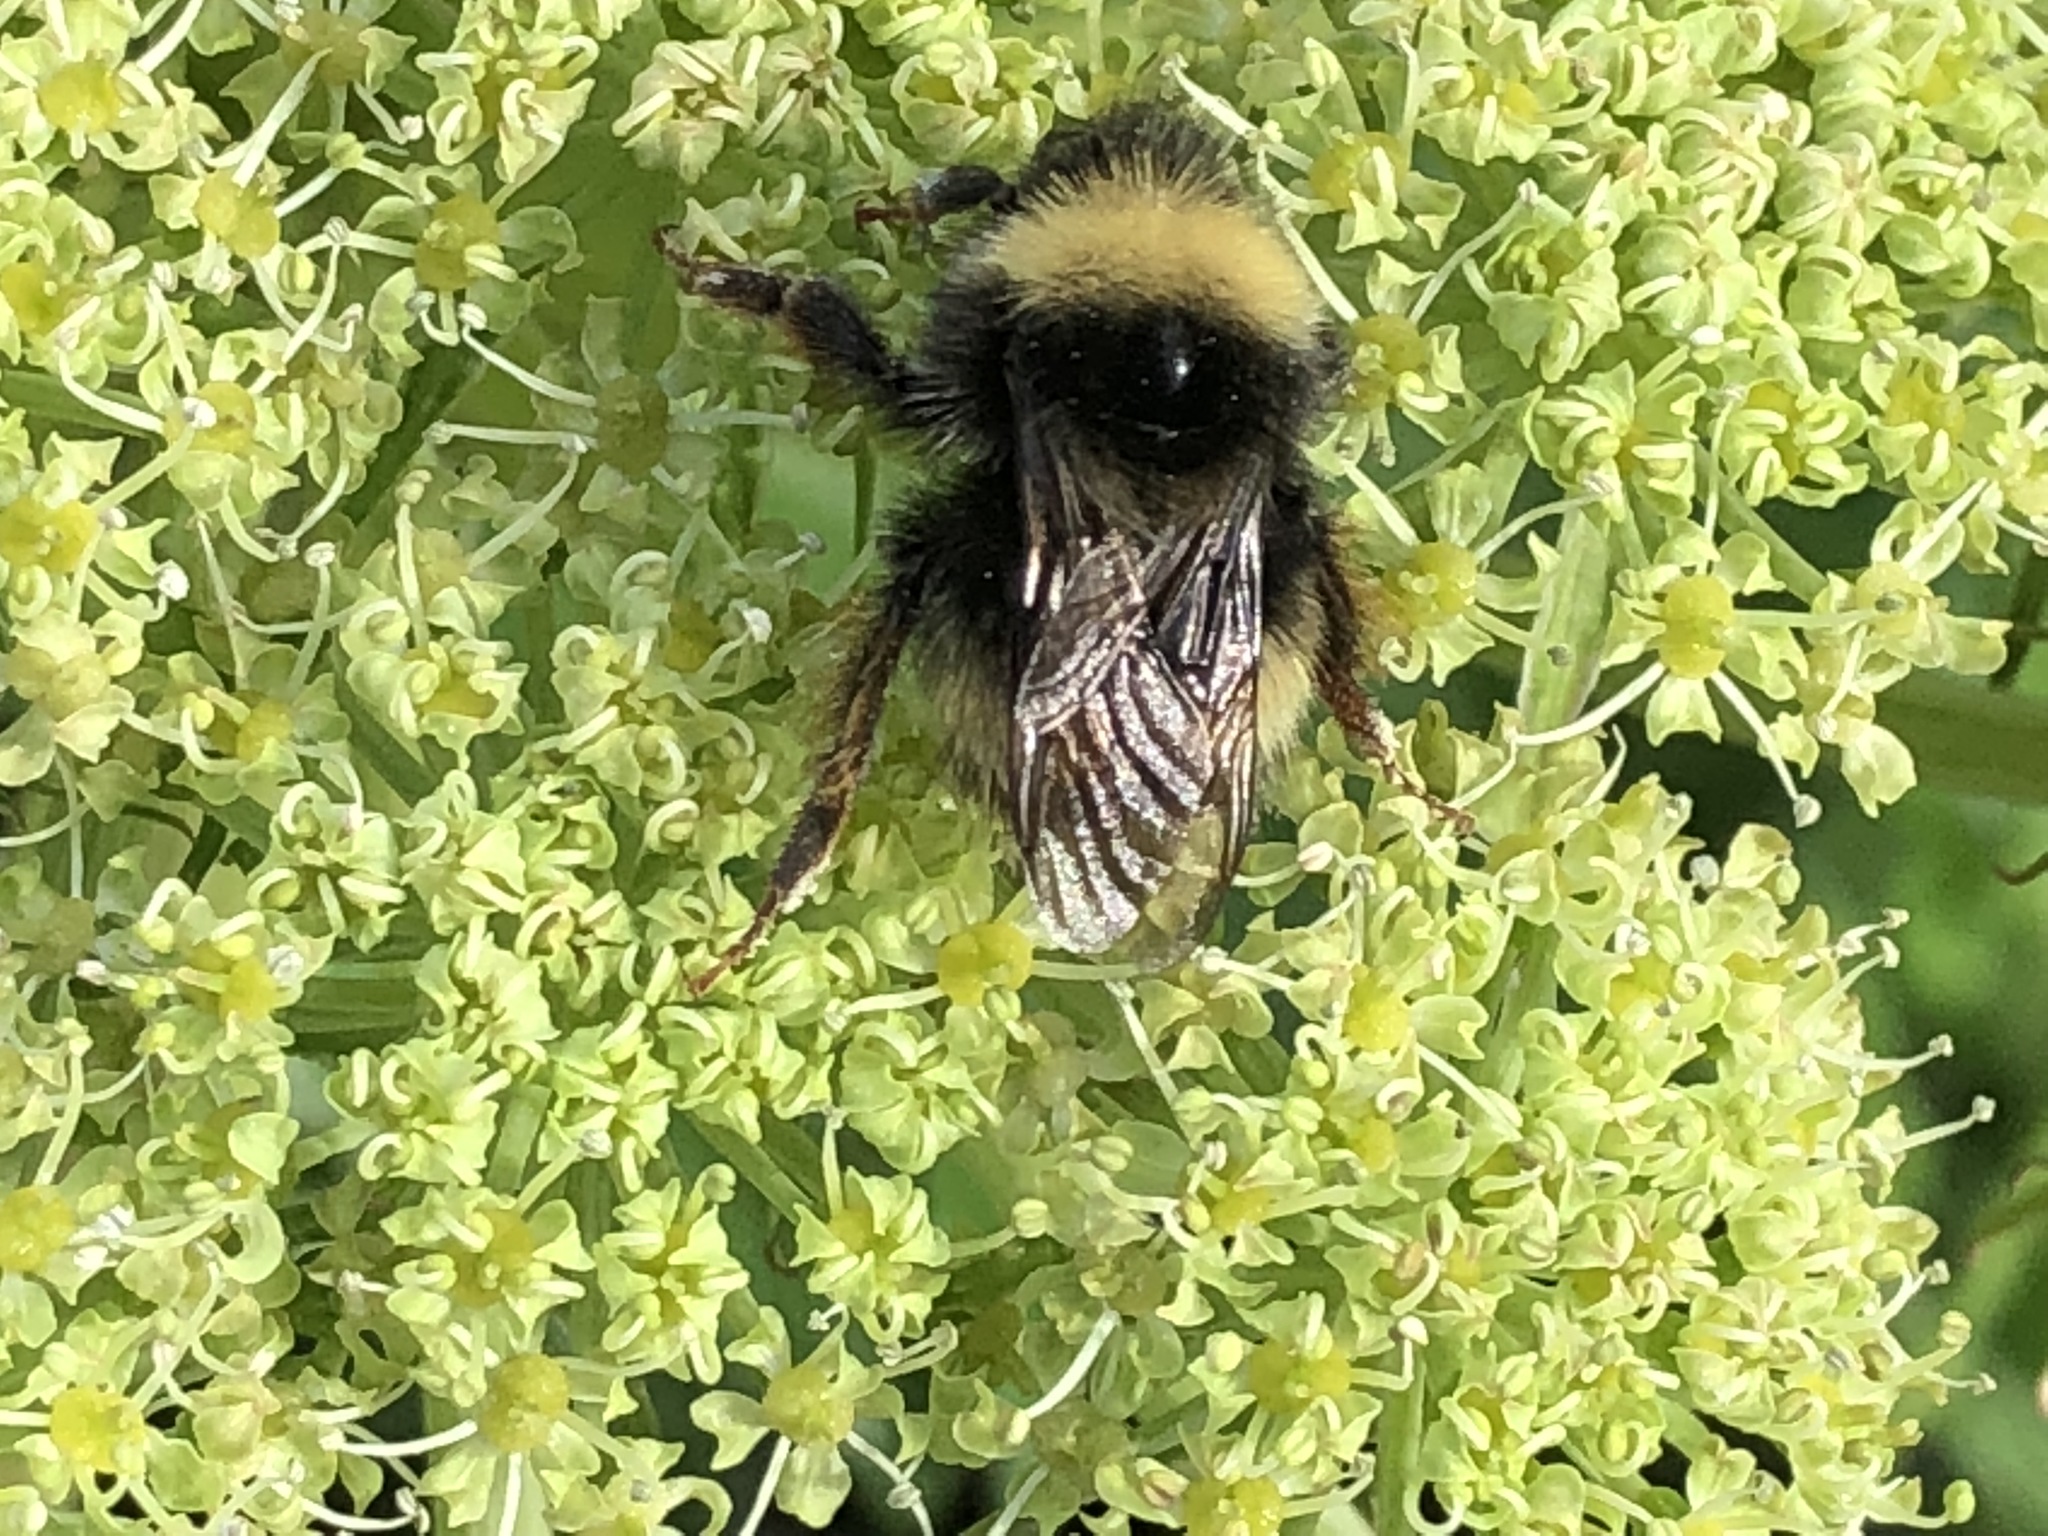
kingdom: Animalia
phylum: Arthropoda
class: Insecta
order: Hymenoptera
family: Apidae
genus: Bombus
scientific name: Bombus mckayi
